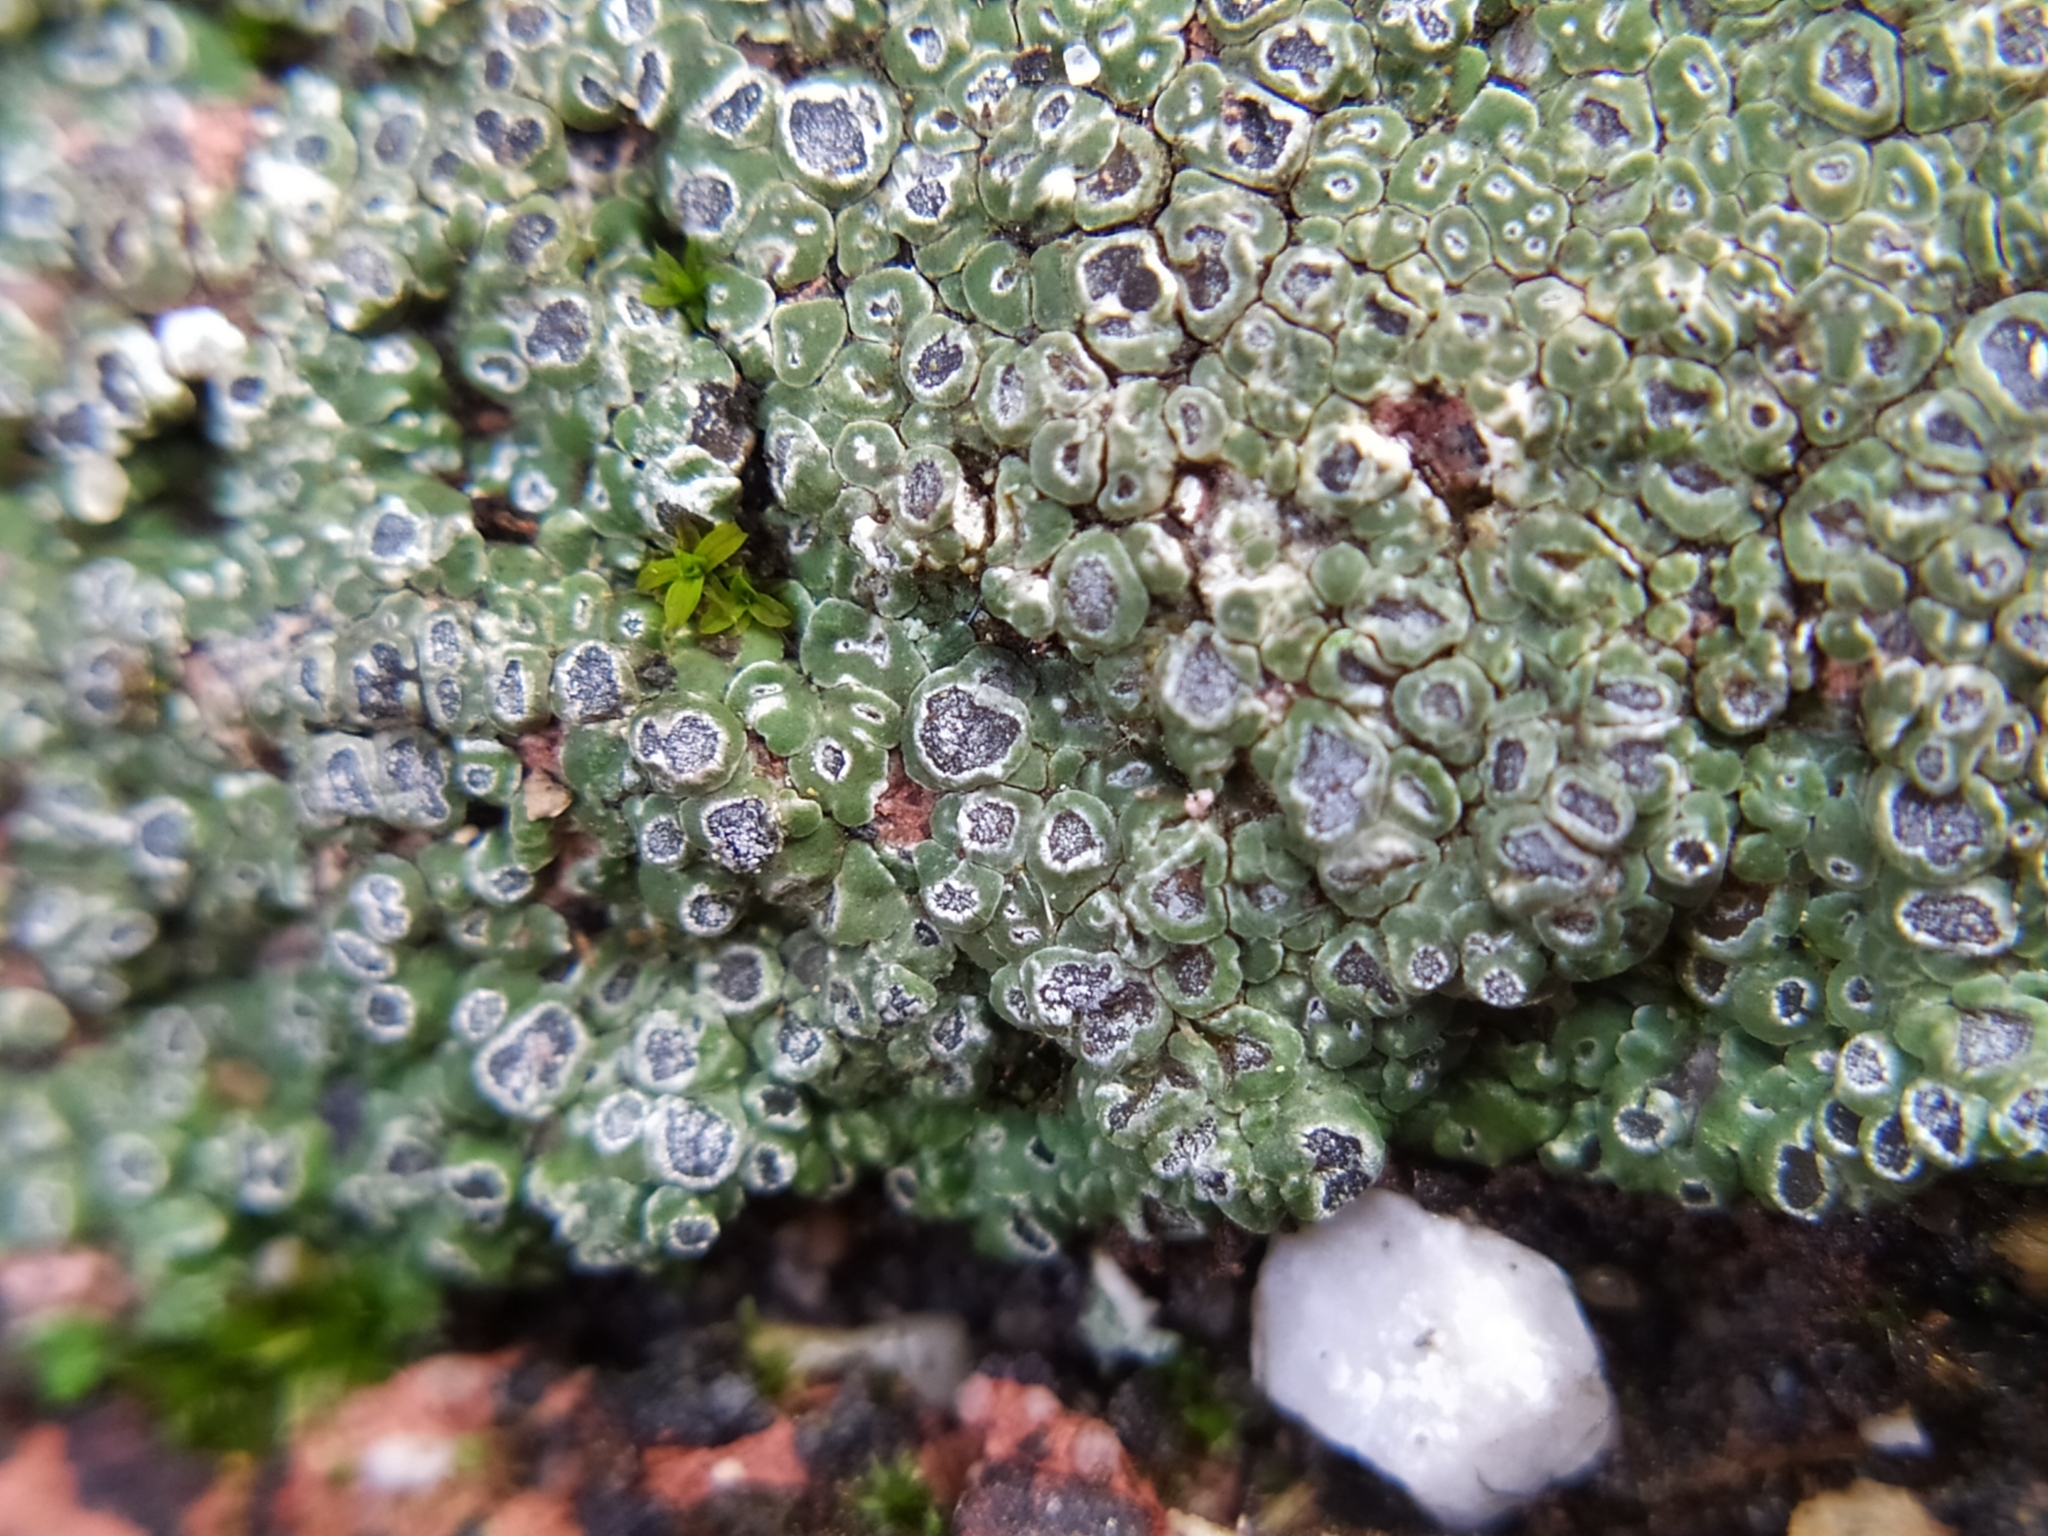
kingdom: Fungi
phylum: Ascomycota
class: Lecanoromycetes
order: Pertusariales
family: Megasporaceae
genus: Circinaria
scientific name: Circinaria contorta
